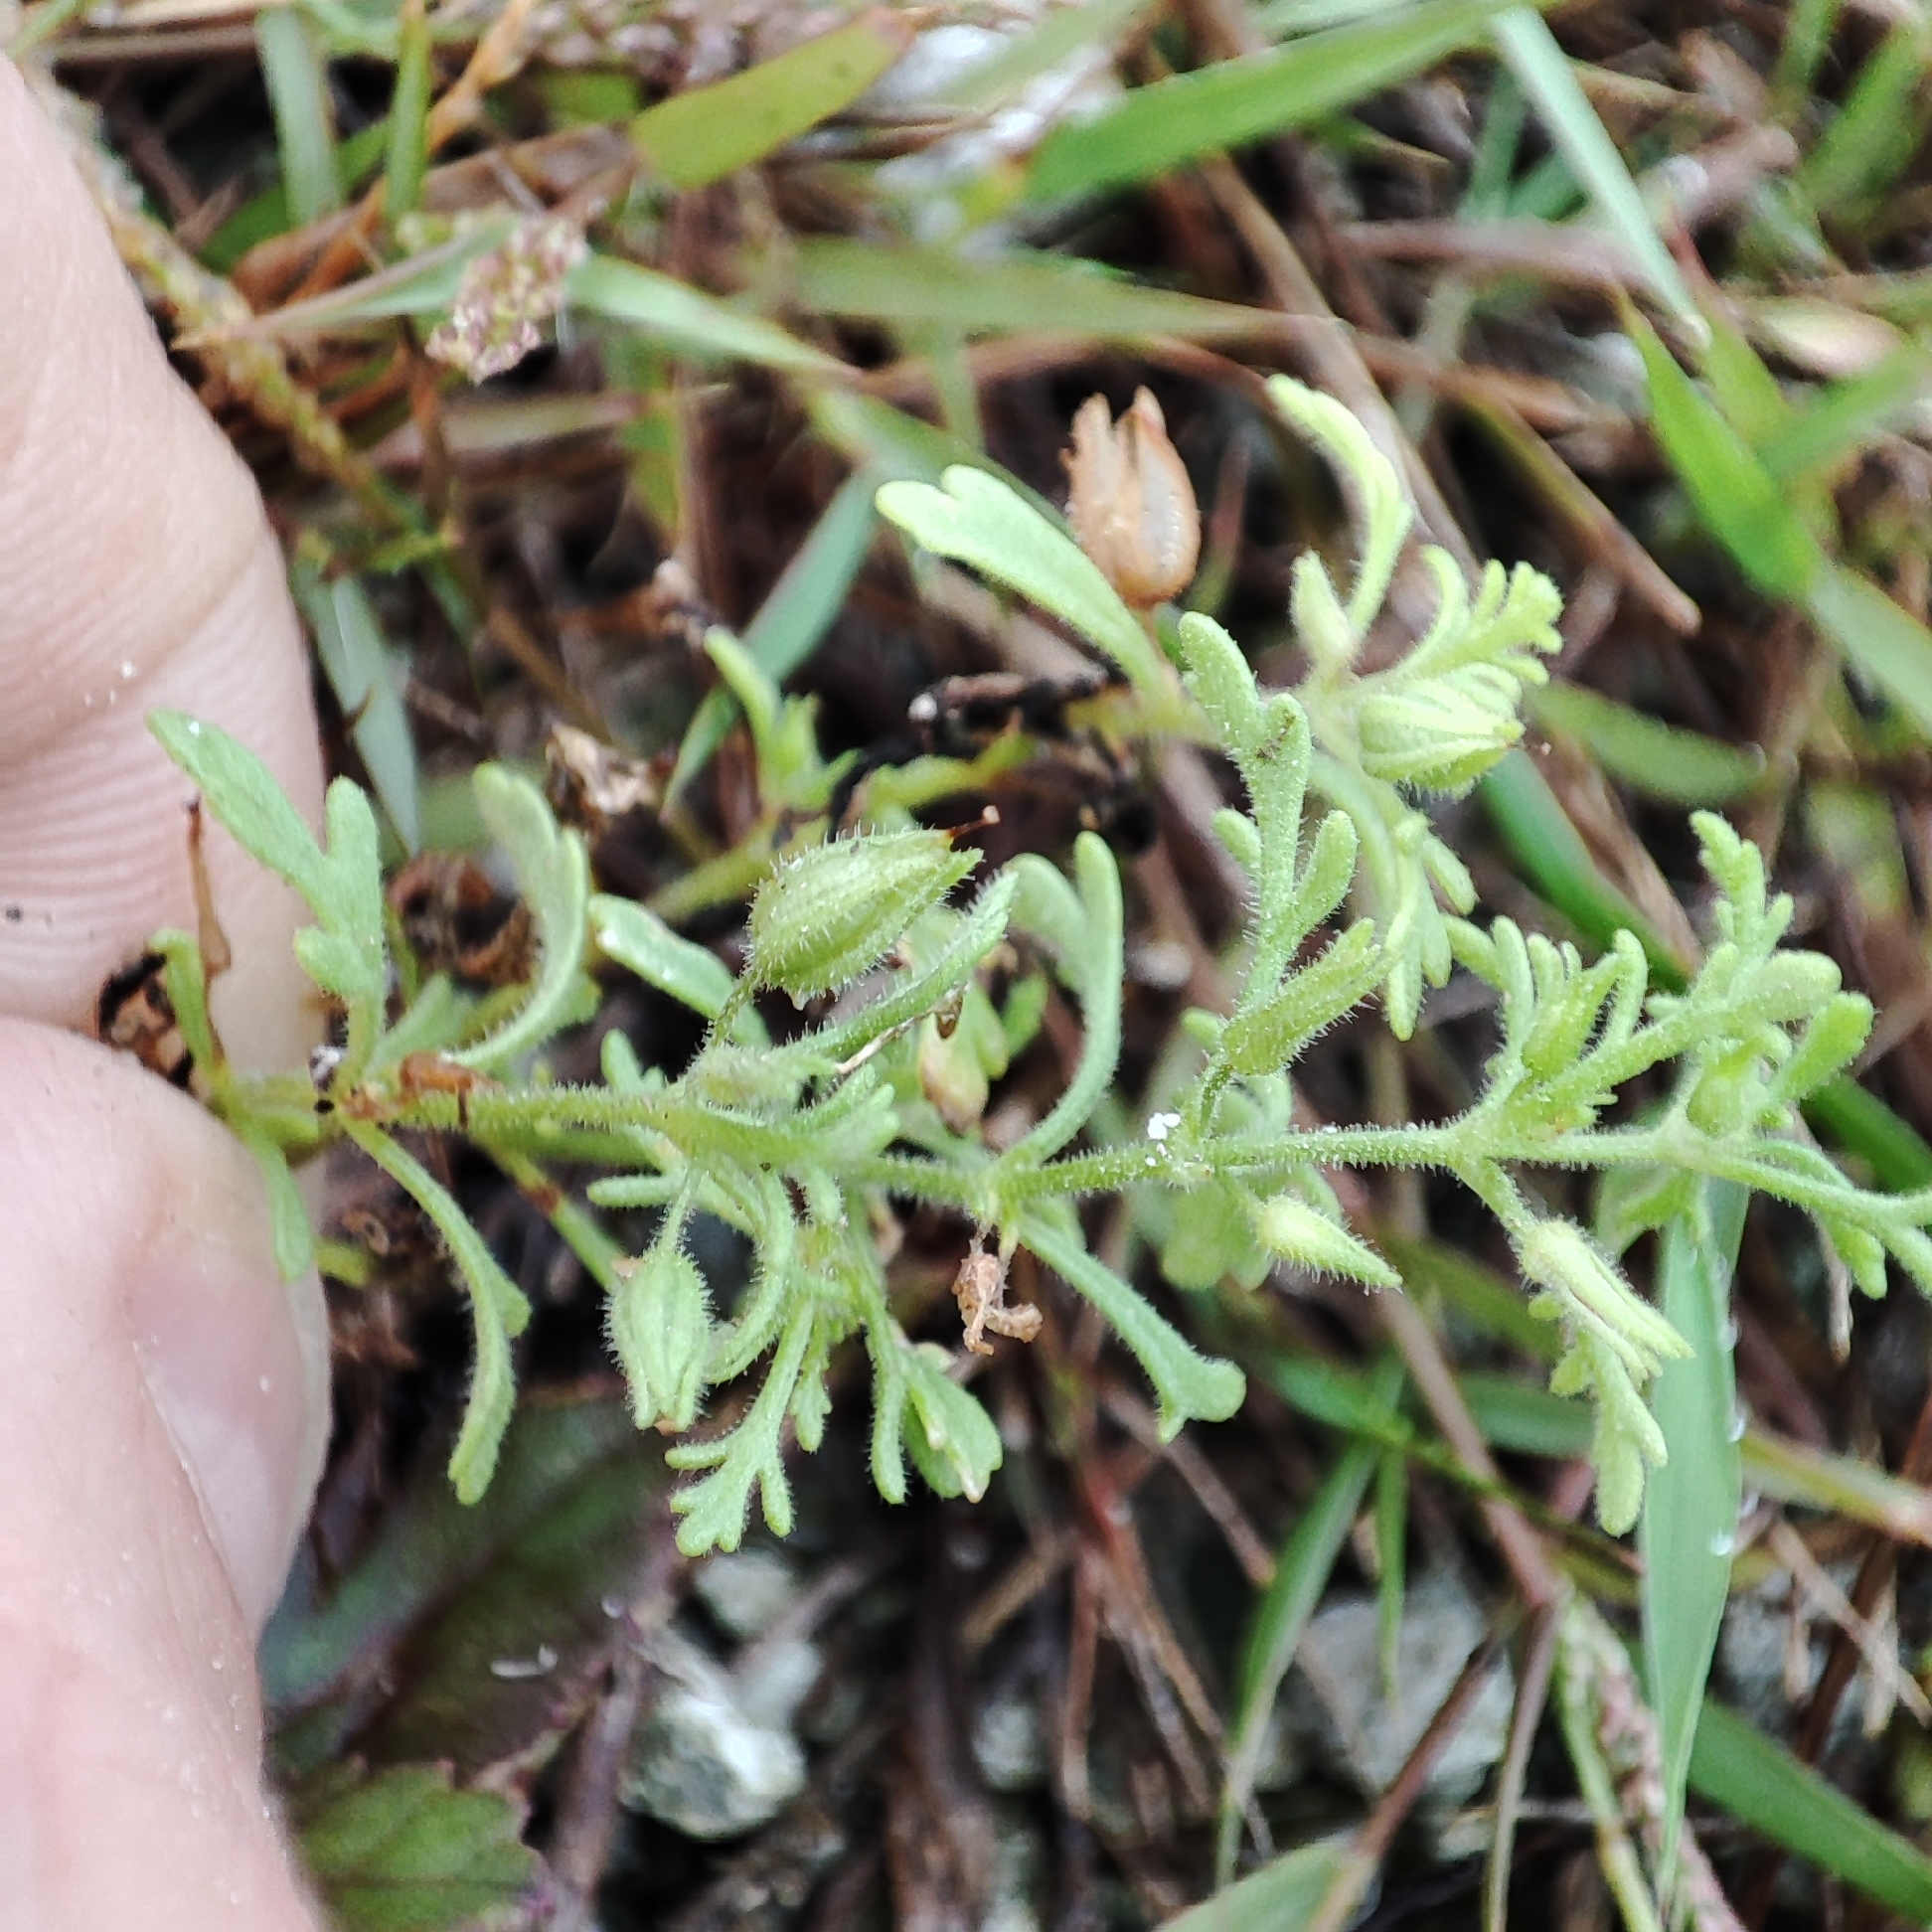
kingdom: Plantae
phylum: Tracheophyta
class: Magnoliopsida
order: Lamiales
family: Plantaginaceae
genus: Leucospora
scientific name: Leucospora multifida
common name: Narrow-leaf paleseed
